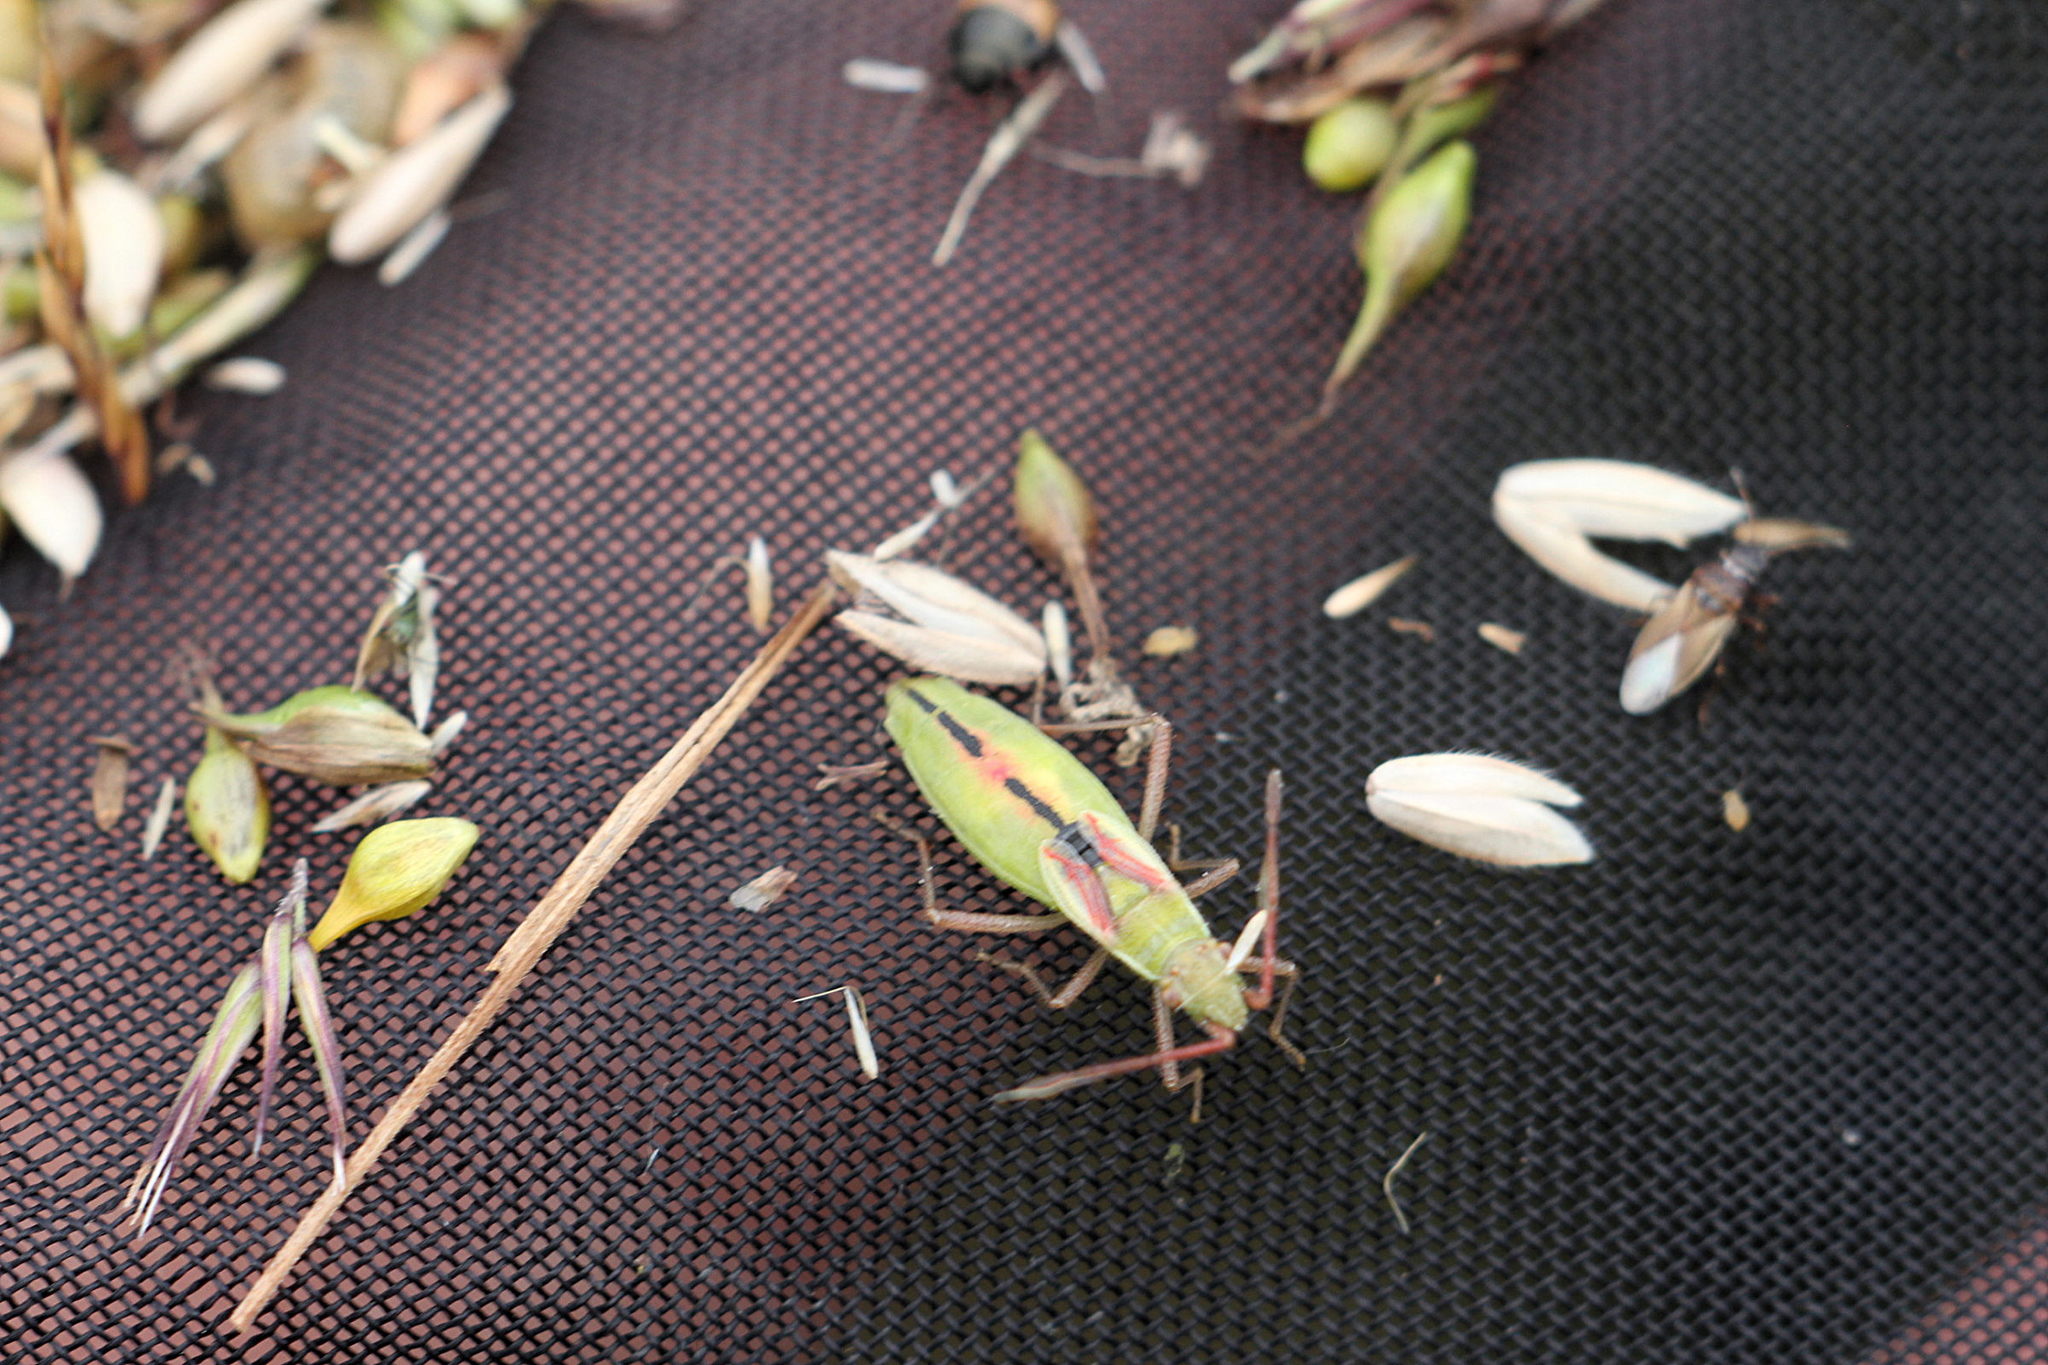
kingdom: Animalia
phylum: Arthropoda
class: Insecta
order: Hemiptera
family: Rhopalidae
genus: Myrmus
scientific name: Myrmus miriformis
